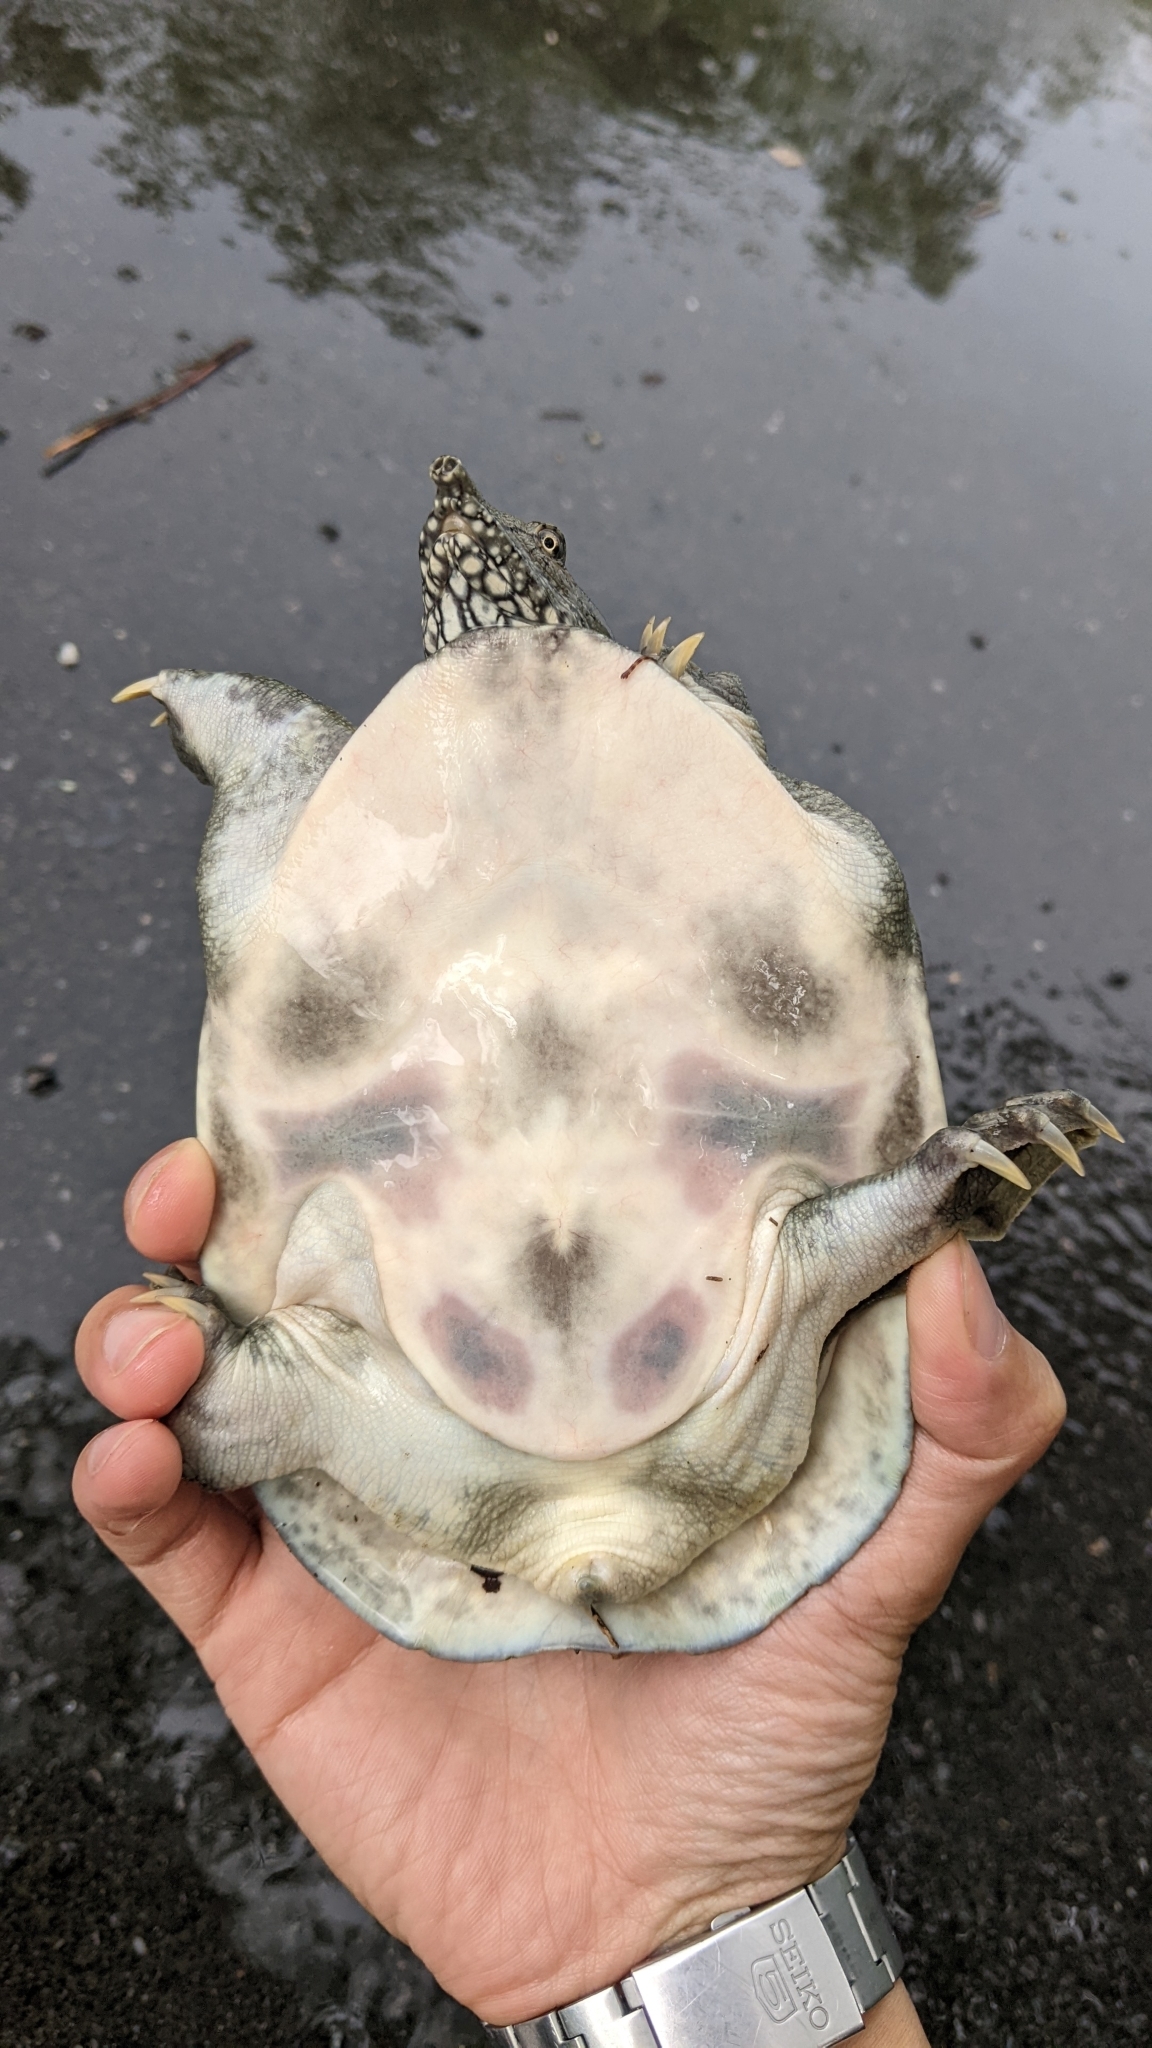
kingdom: Animalia
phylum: Chordata
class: Testudines
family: Trionychidae
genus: Pelodiscus
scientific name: Pelodiscus sinensis
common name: Chinese softshell turtle
